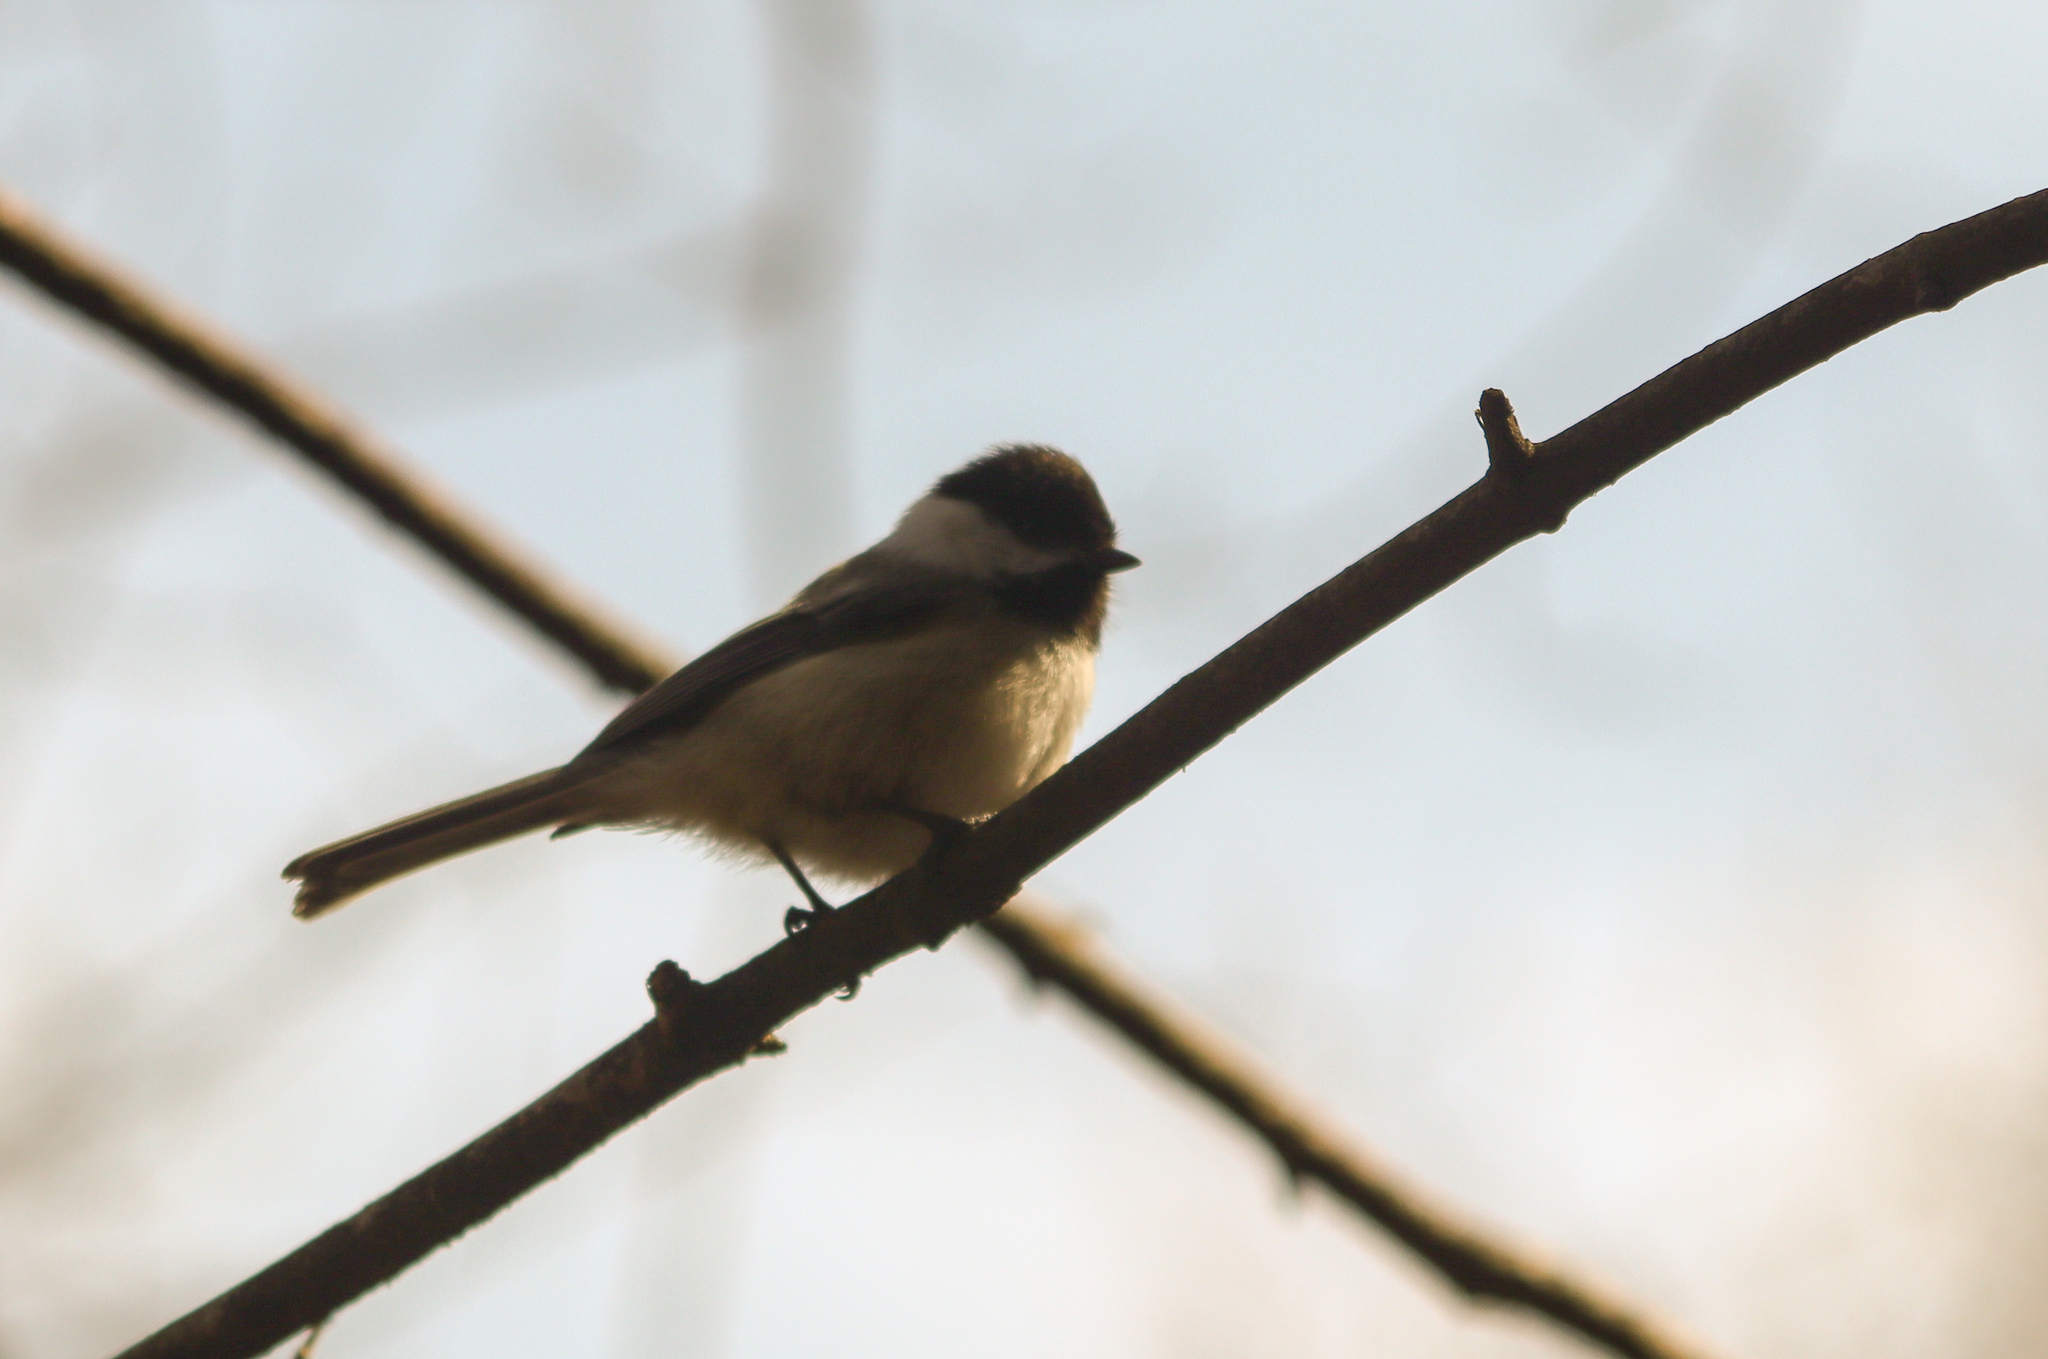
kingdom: Animalia
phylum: Chordata
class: Aves
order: Passeriformes
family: Paridae
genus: Poecile
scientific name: Poecile atricapillus
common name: Black-capped chickadee
